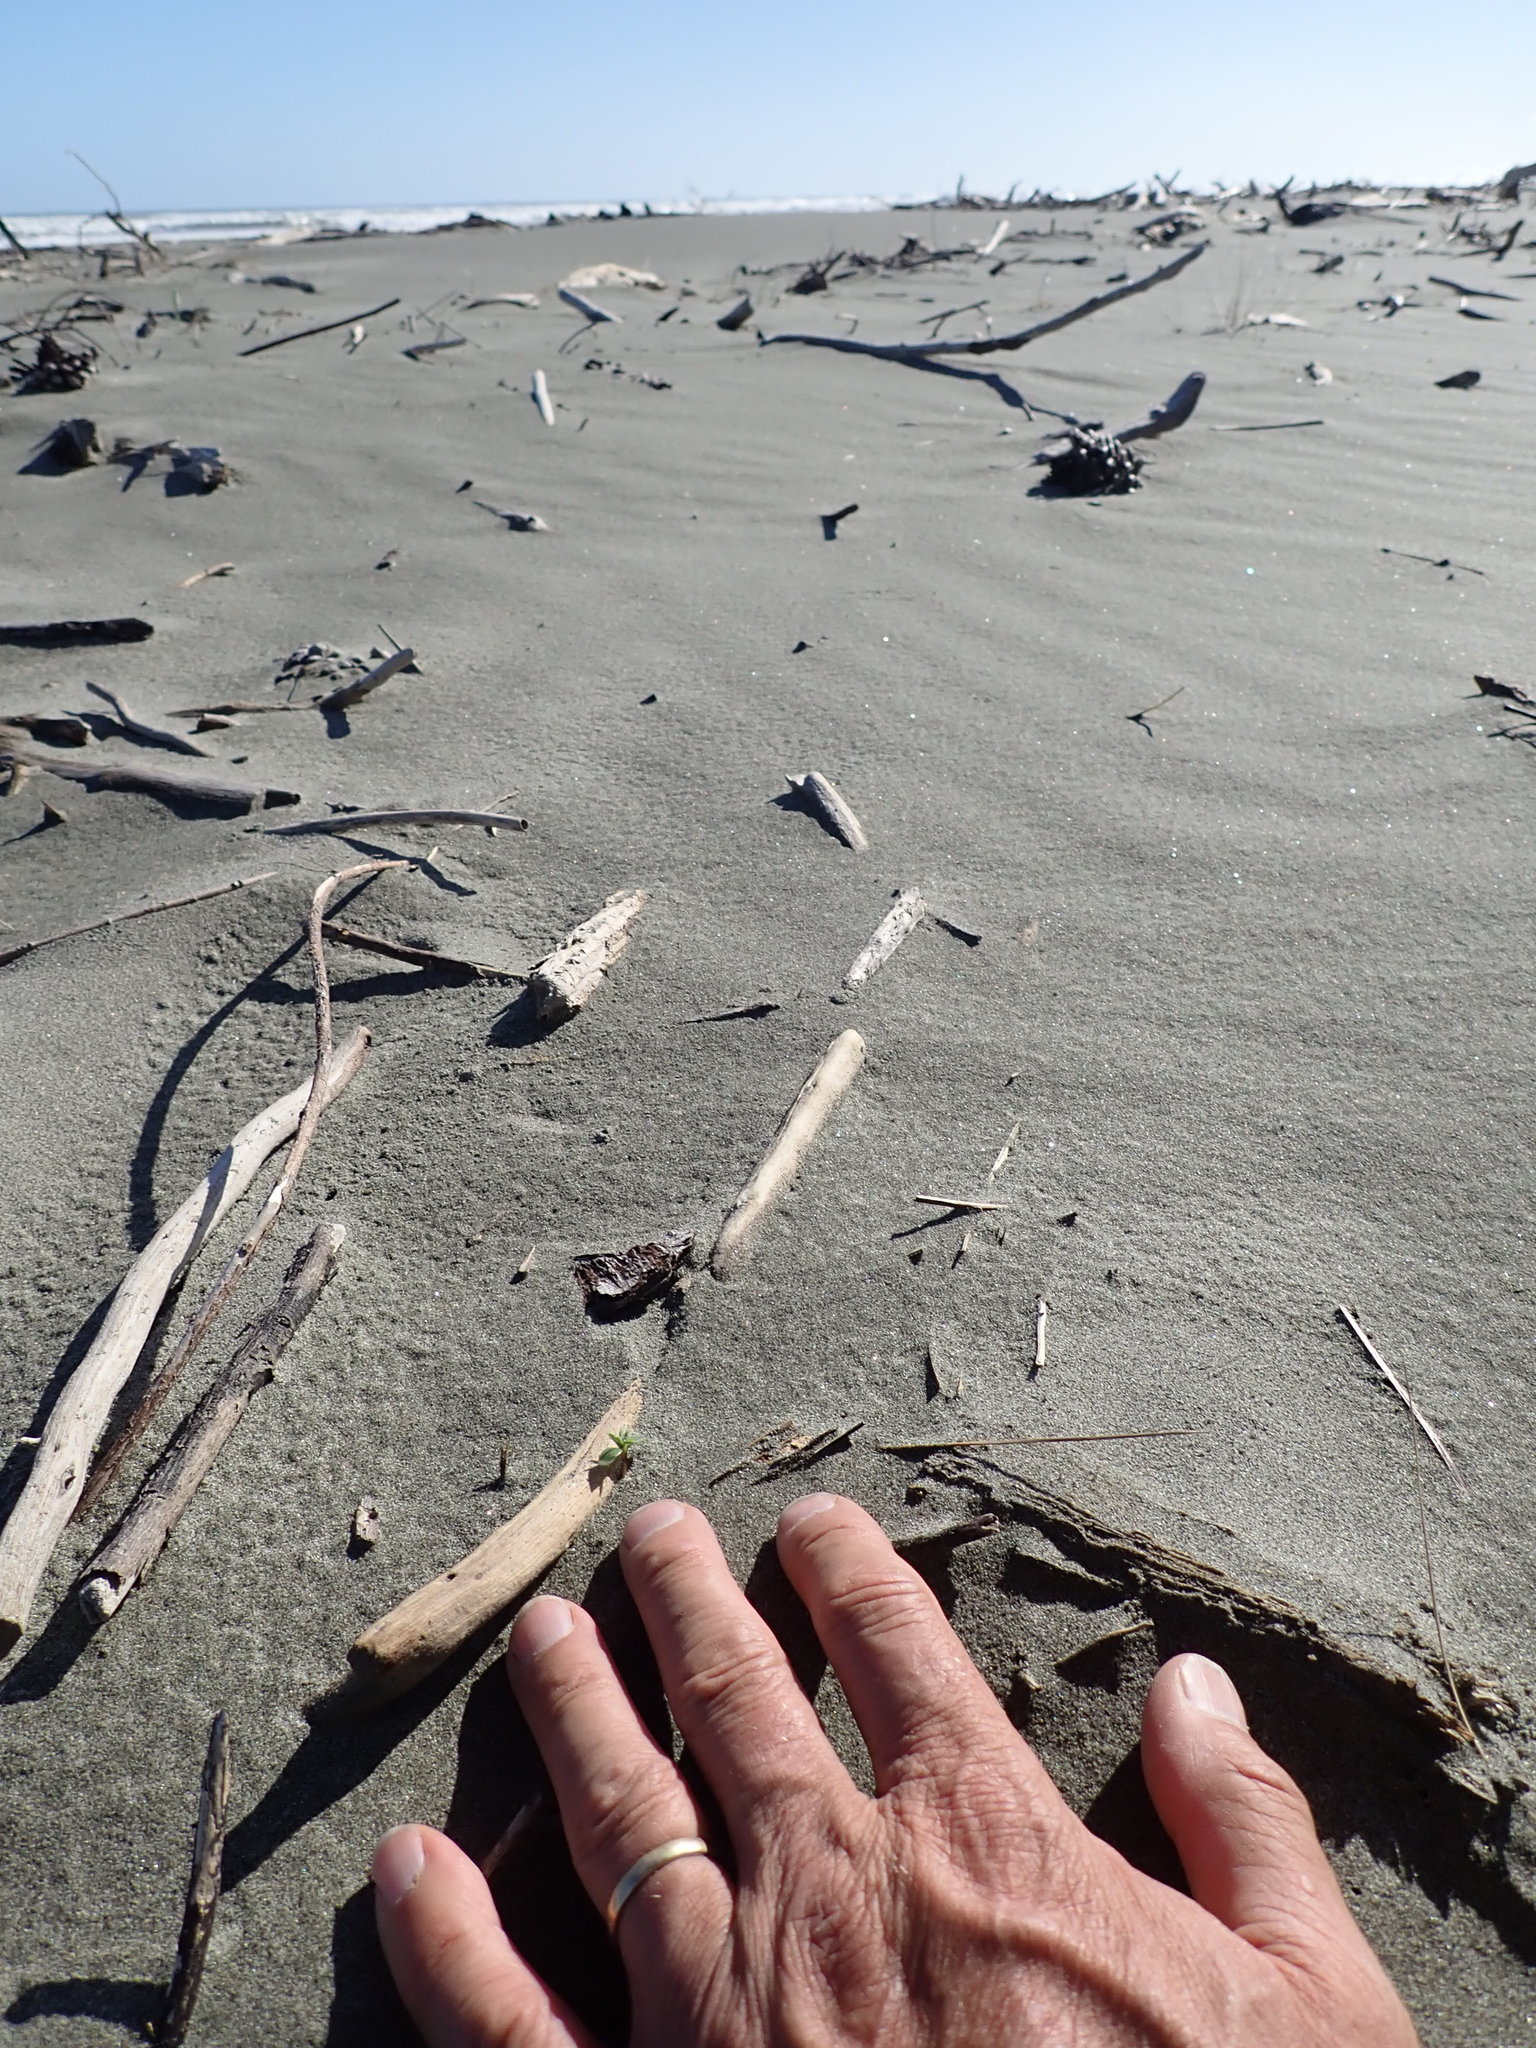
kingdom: Plantae
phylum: Tracheophyta
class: Magnoliopsida
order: Fabales
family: Fabaceae
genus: Lupinus
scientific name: Lupinus arboreus
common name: Yellow bush lupine
